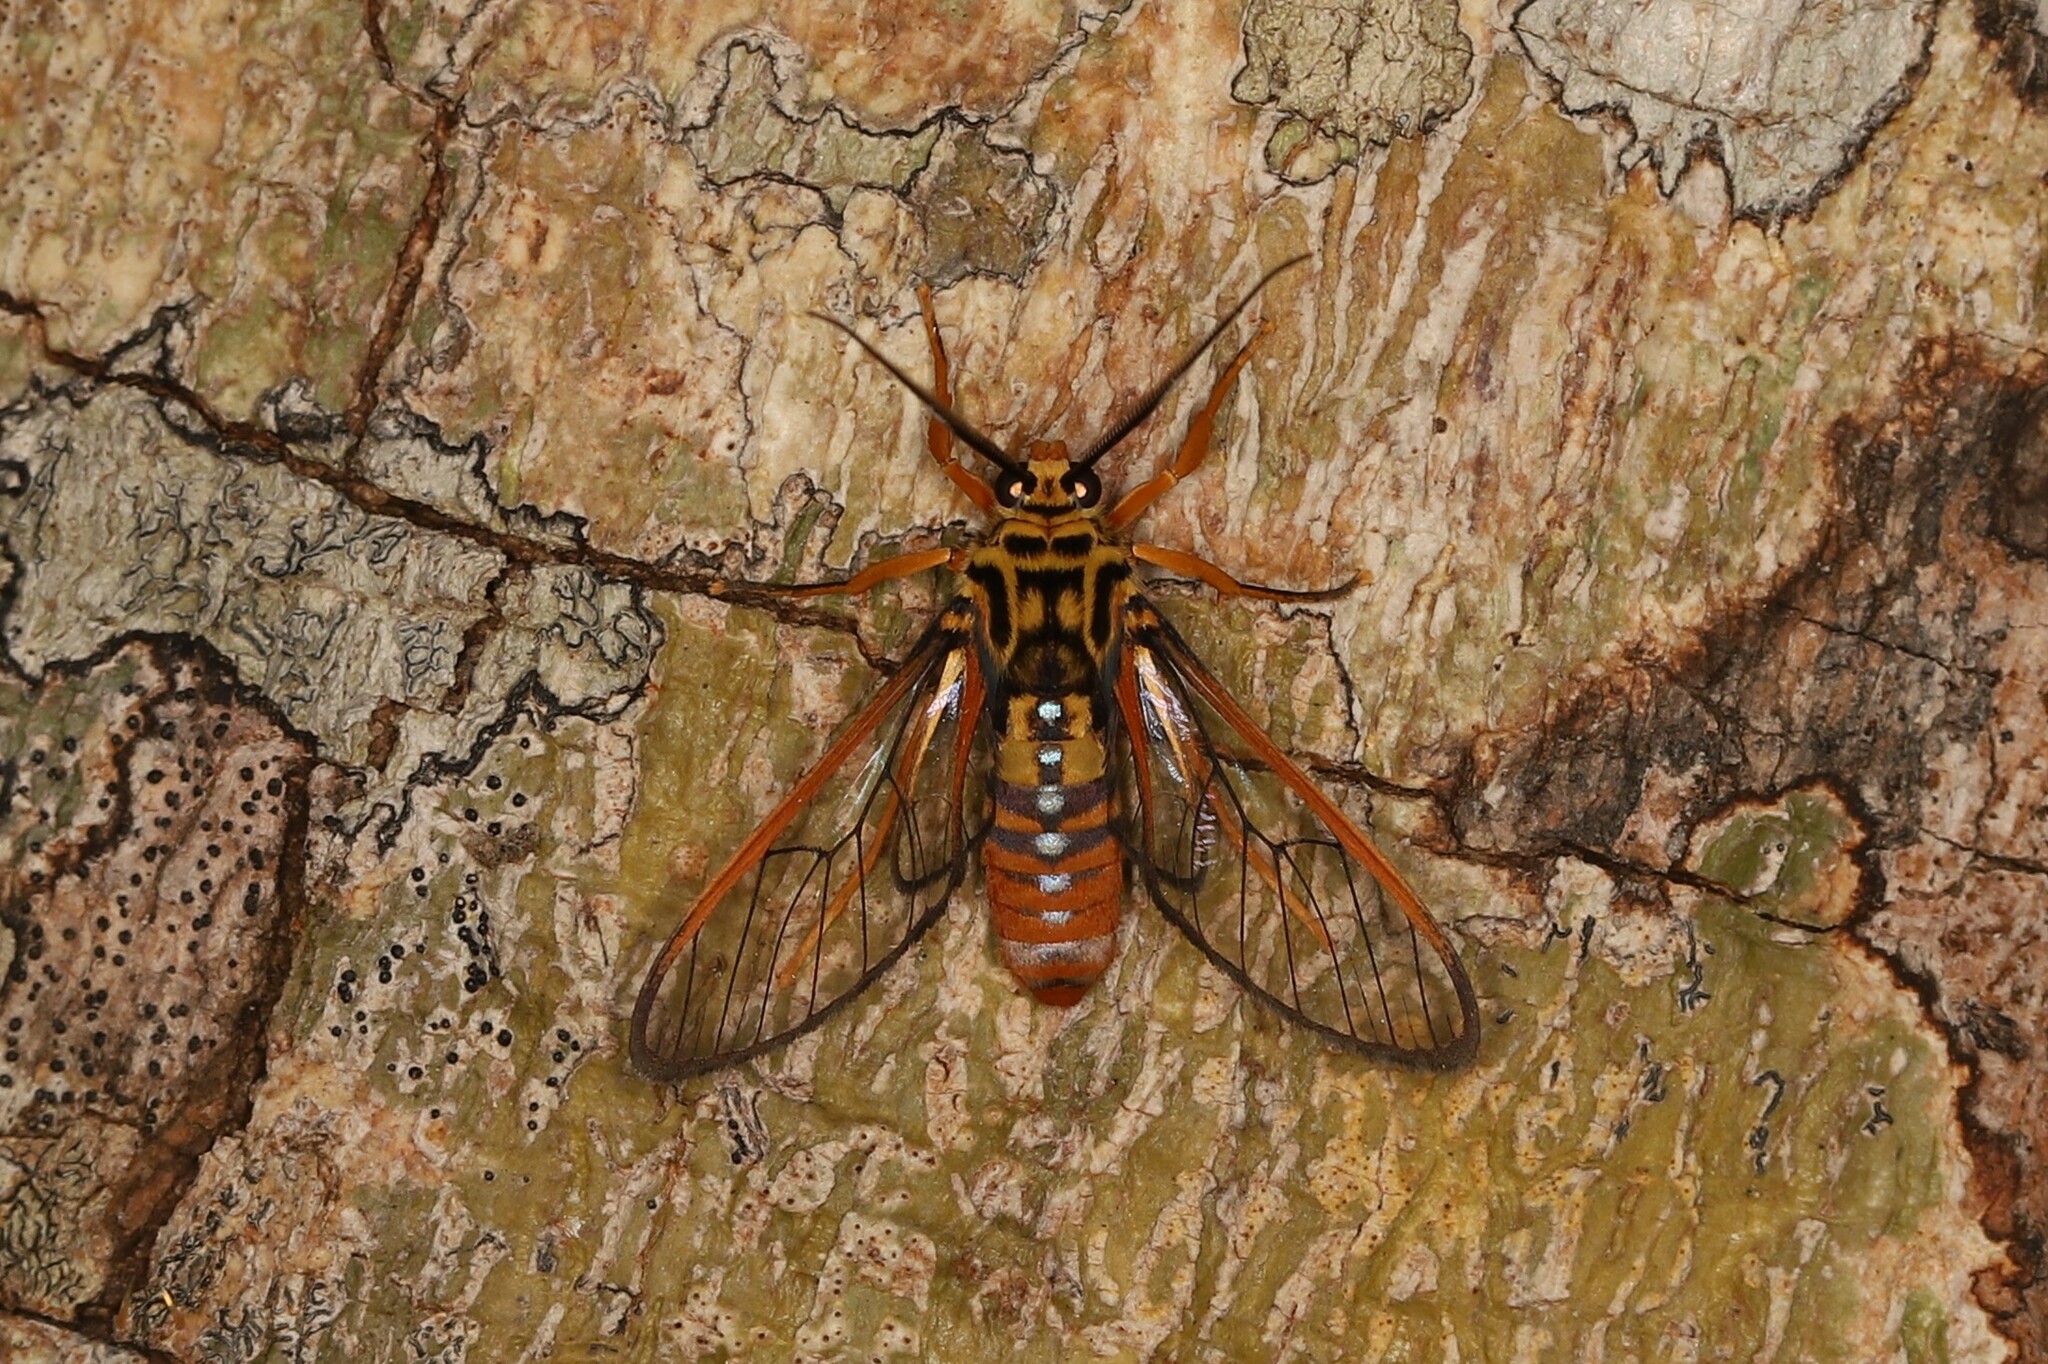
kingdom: Animalia
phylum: Arthropoda
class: Insecta
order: Lepidoptera
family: Erebidae
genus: Abrochia
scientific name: Abrochia fulvisphex
